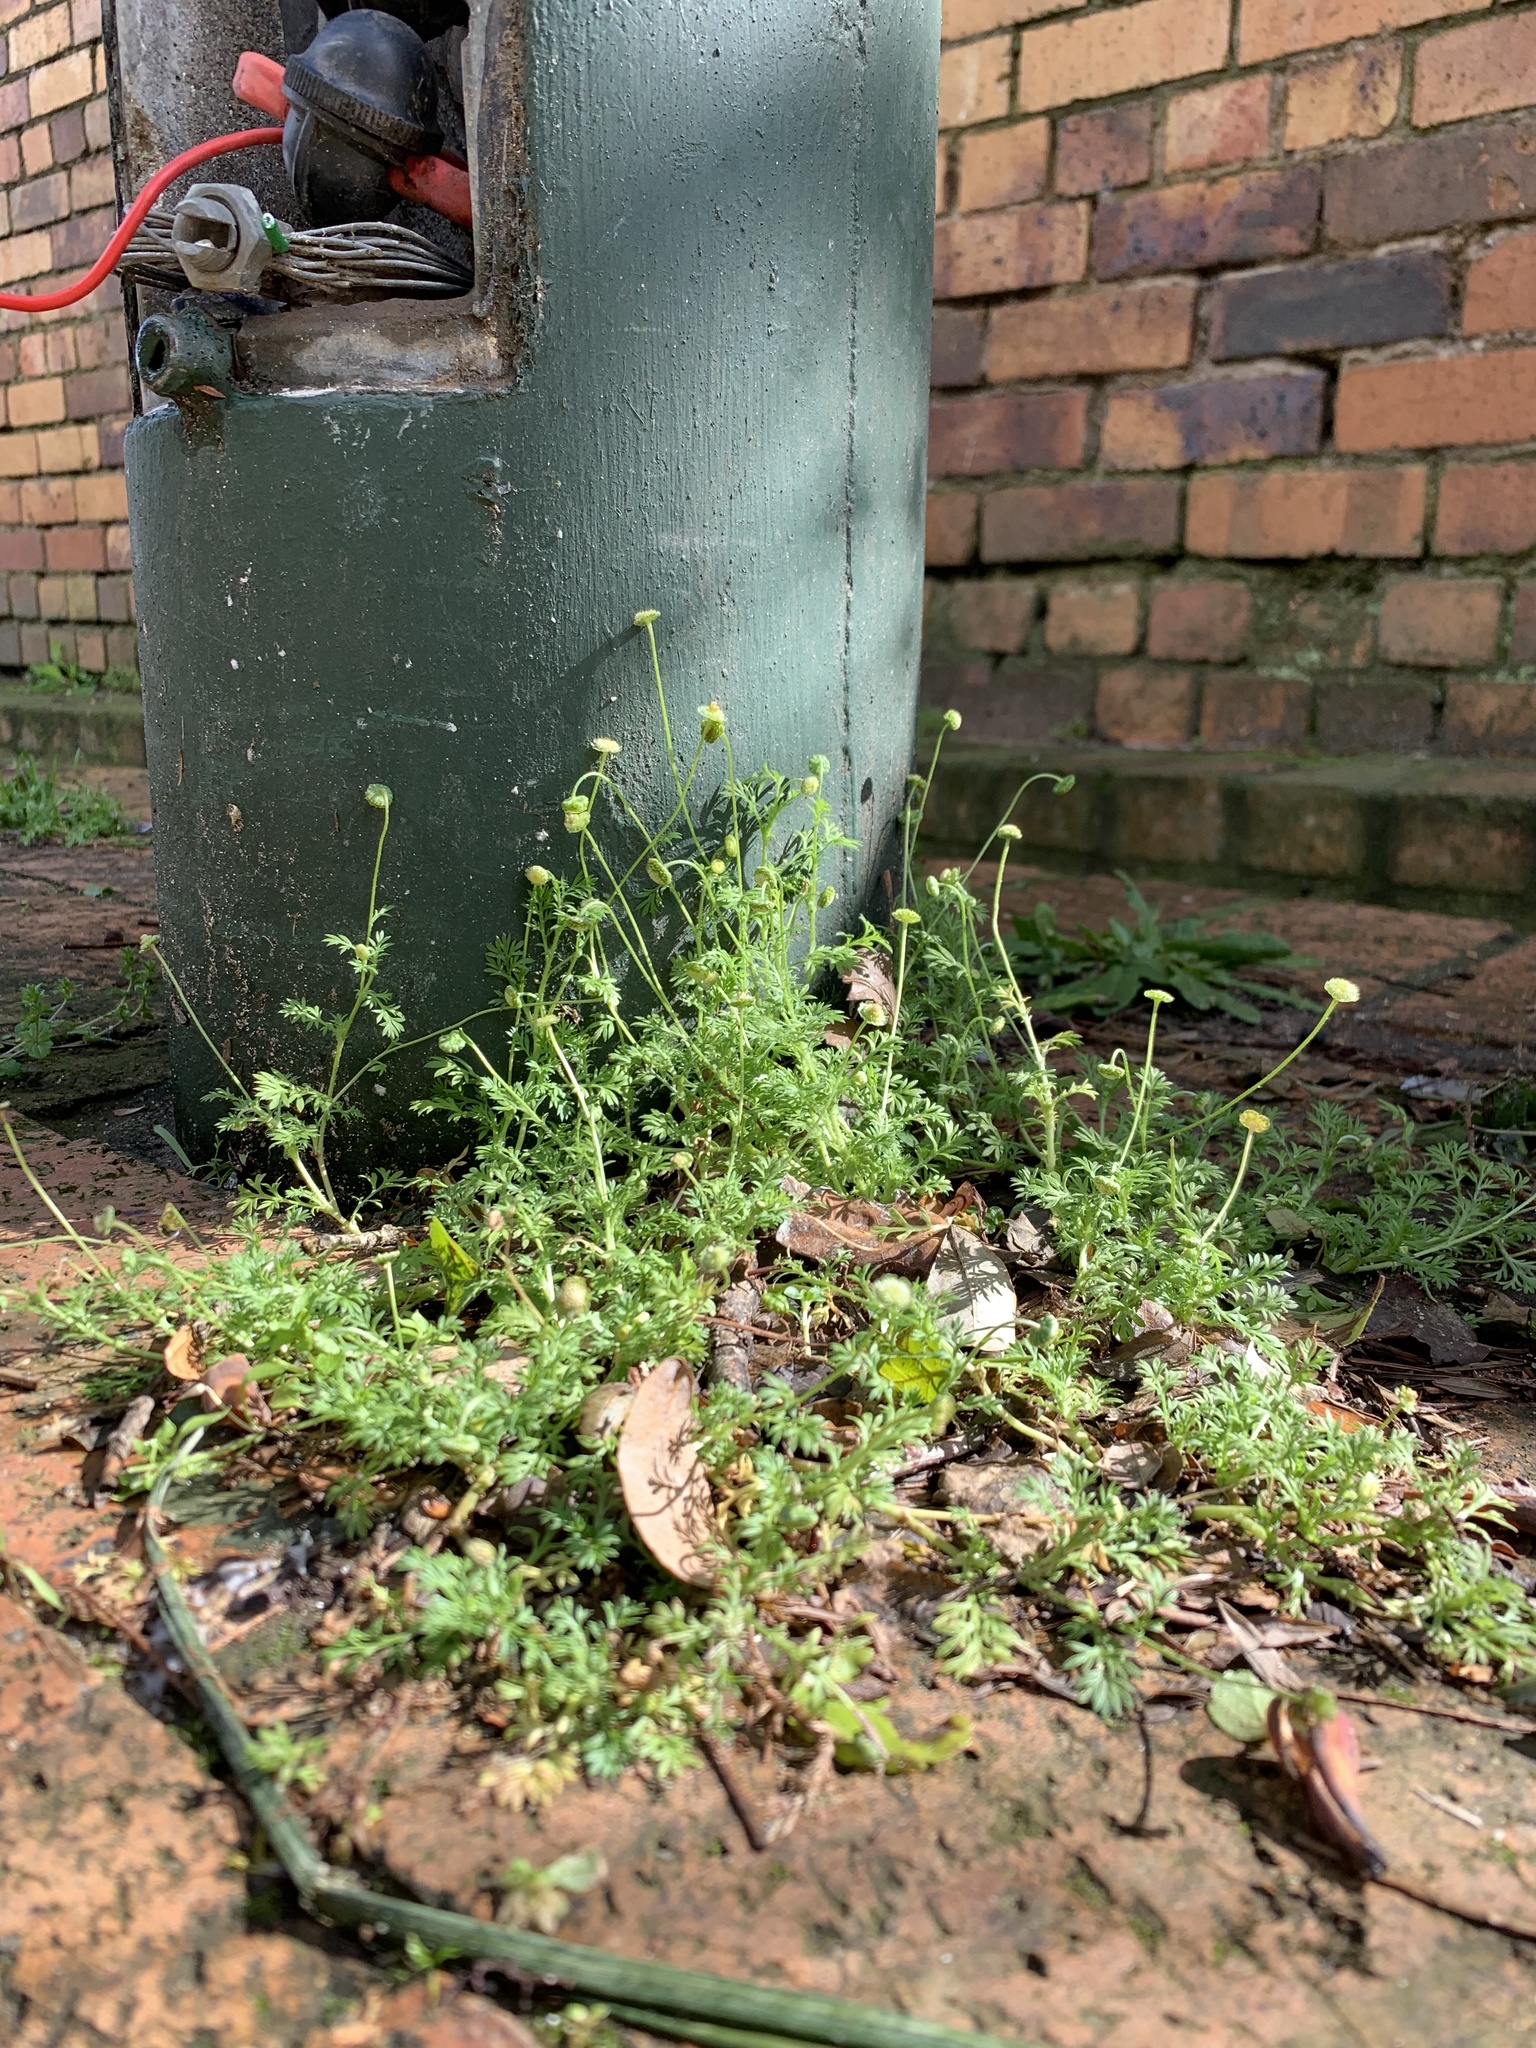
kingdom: Plantae
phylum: Tracheophyta
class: Magnoliopsida
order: Asterales
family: Asteraceae
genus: Cotula
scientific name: Cotula australis
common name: Australian waterbuttons
